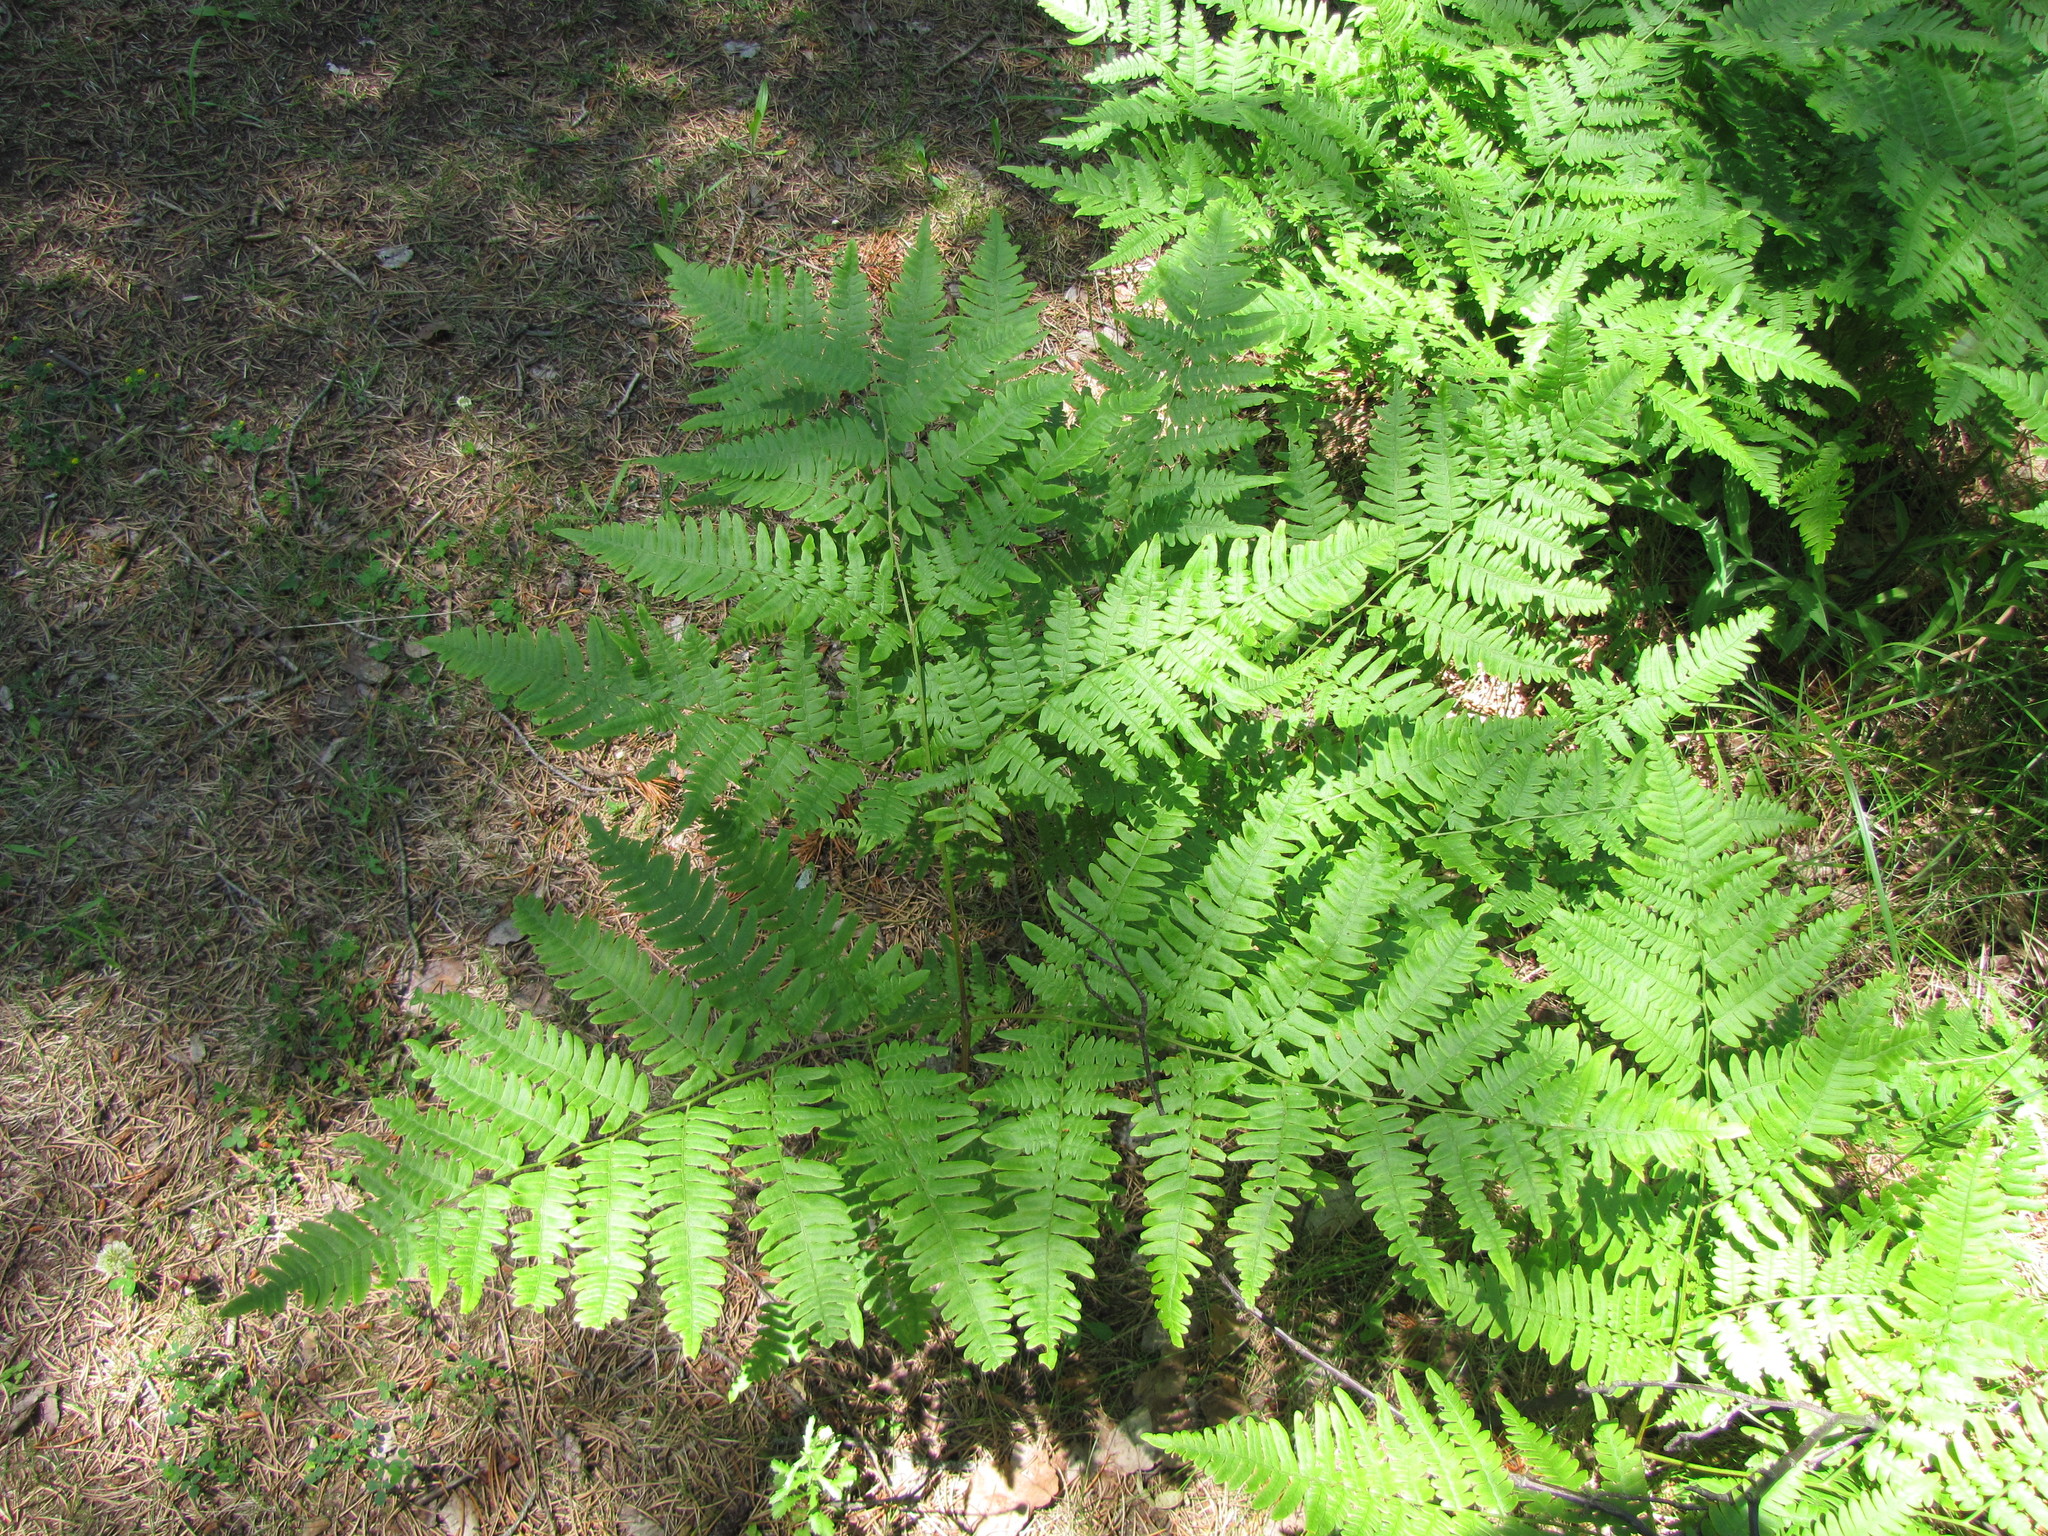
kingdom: Plantae
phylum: Tracheophyta
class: Polypodiopsida
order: Polypodiales
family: Dennstaedtiaceae
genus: Pteridium
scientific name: Pteridium aquilinum
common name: Bracken
